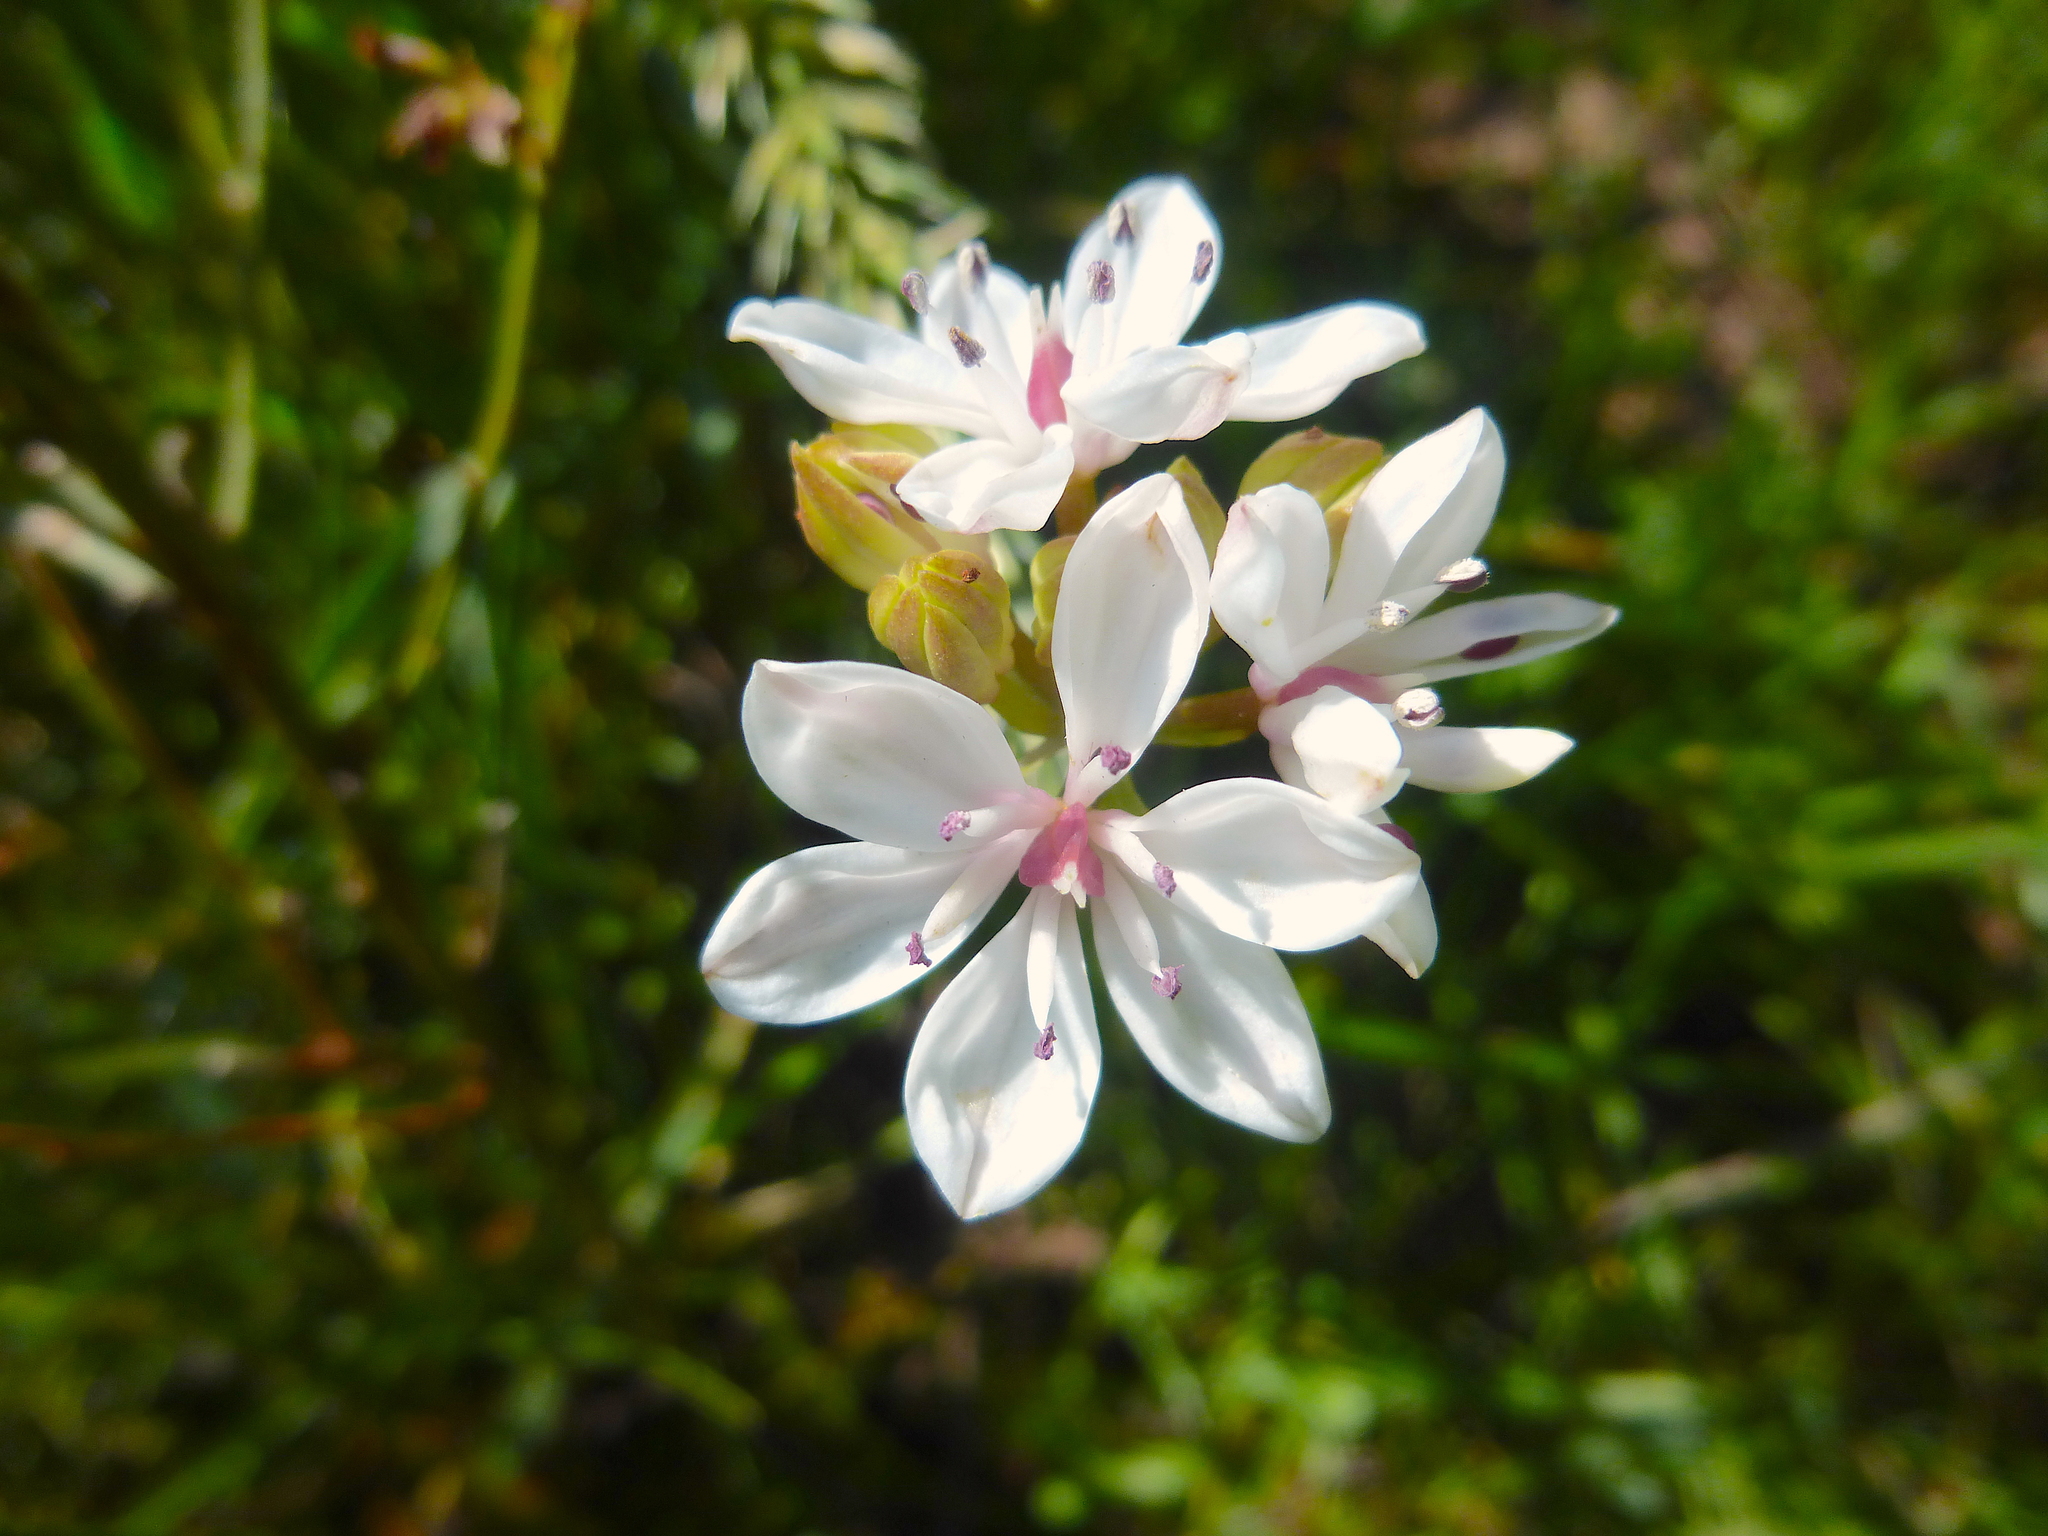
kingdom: Plantae
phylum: Tracheophyta
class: Liliopsida
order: Liliales
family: Colchicaceae
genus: Burchardia
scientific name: Burchardia umbellata
